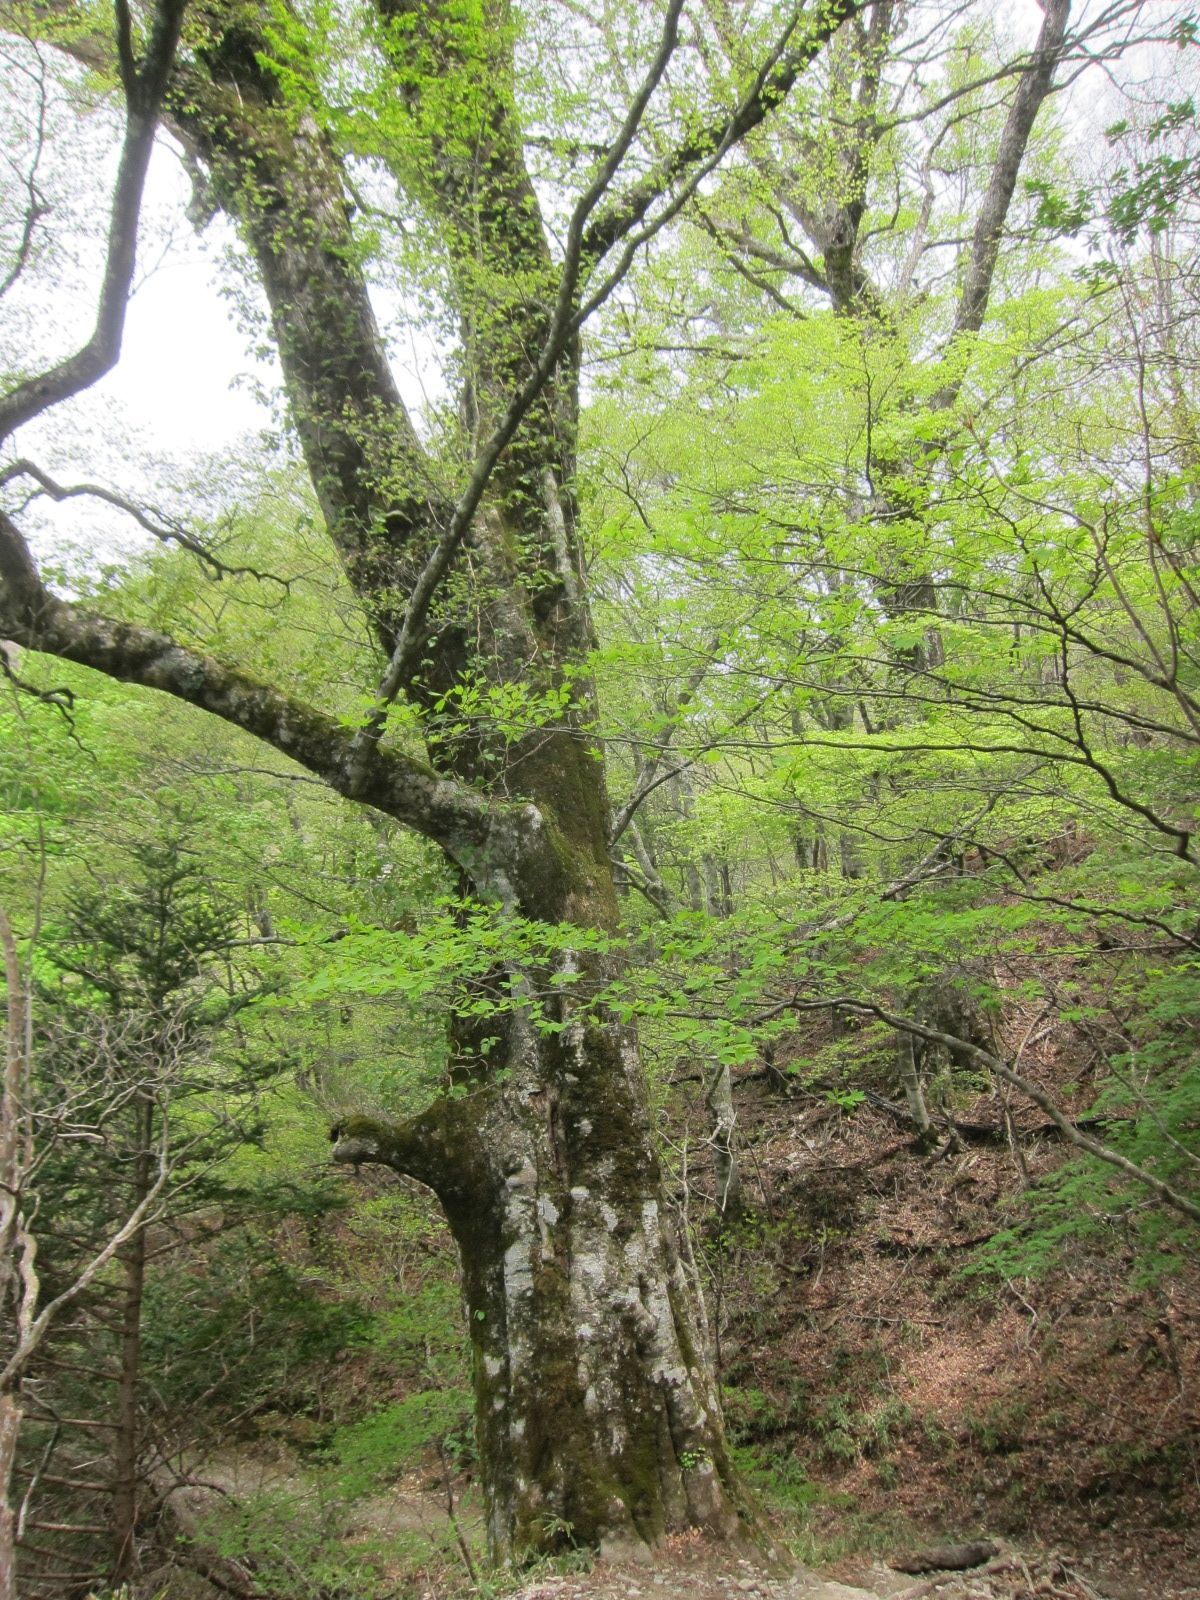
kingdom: Plantae
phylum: Tracheophyta
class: Magnoliopsida
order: Fagales
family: Fagaceae
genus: Fagus
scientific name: Fagus crenata
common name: Japanese beech
